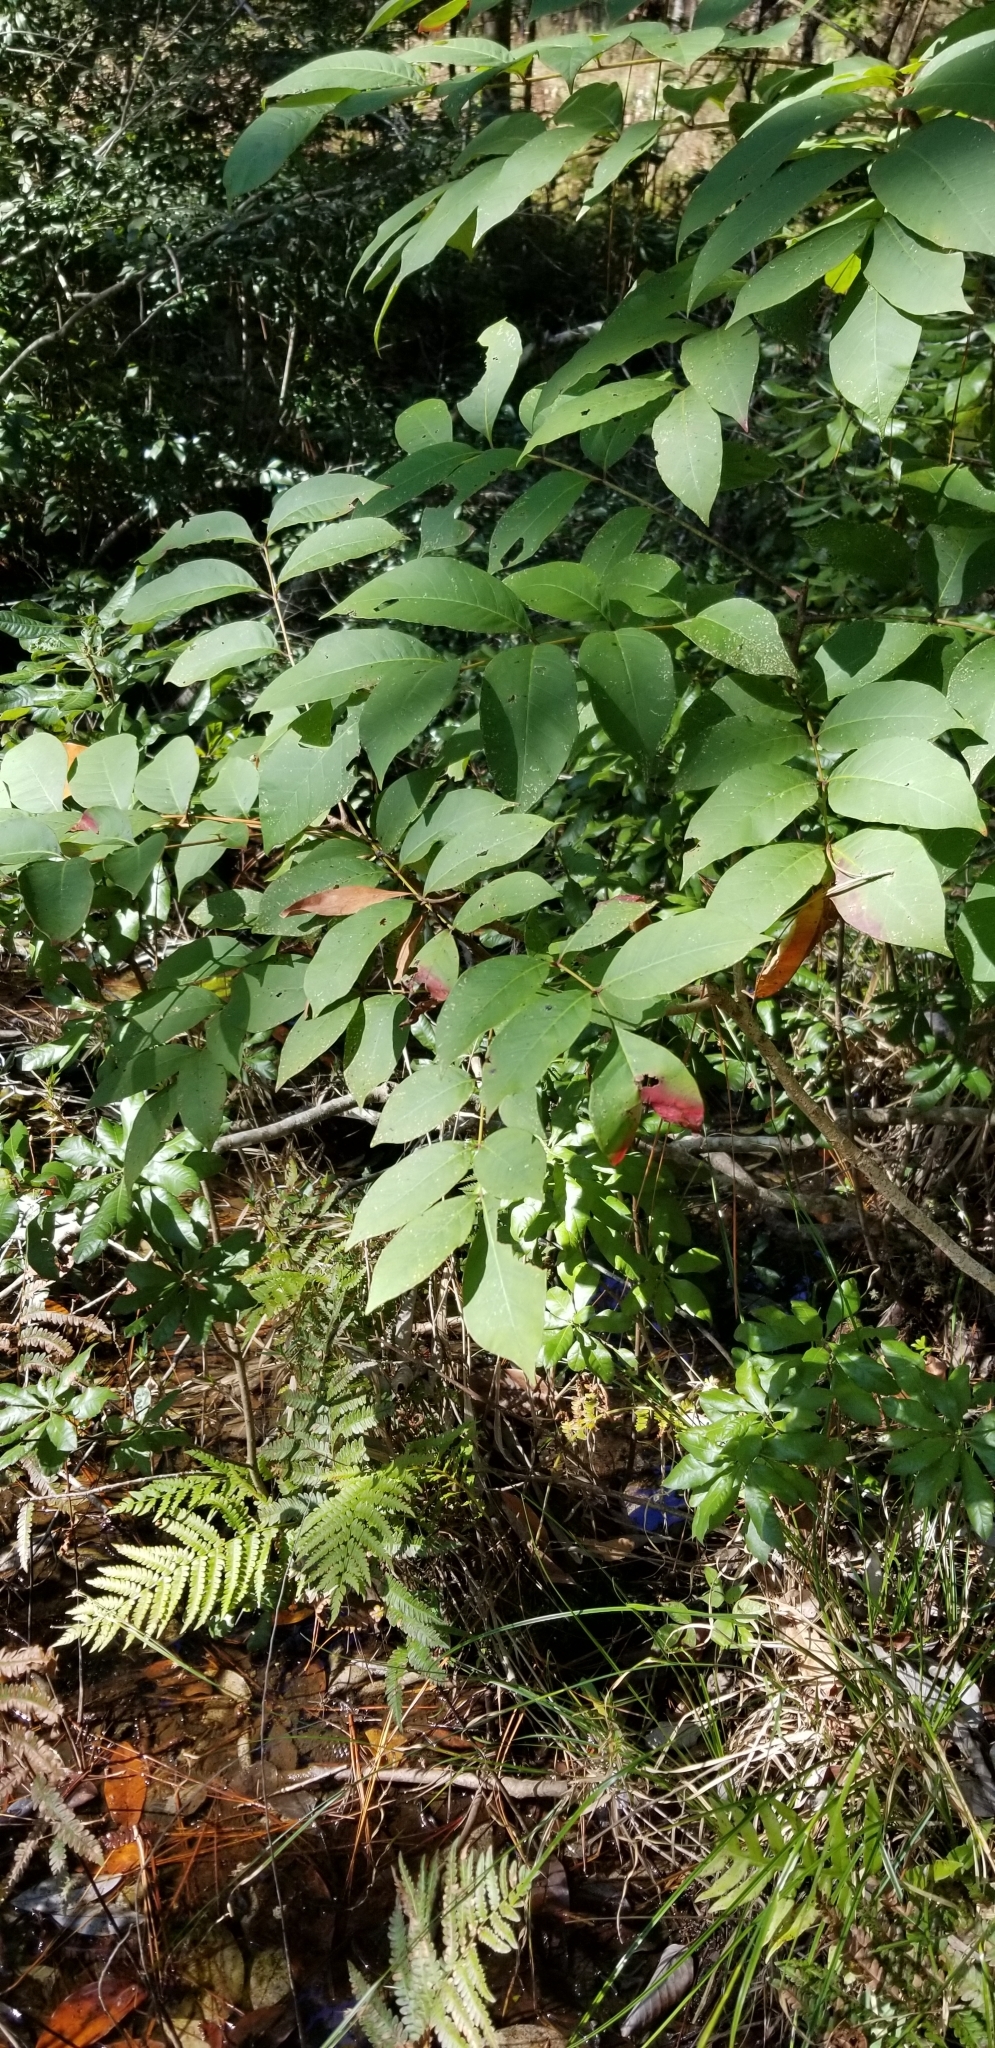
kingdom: Plantae
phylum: Tracheophyta
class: Magnoliopsida
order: Sapindales
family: Anacardiaceae
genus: Toxicodendron
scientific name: Toxicodendron vernix
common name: Poison sumac
